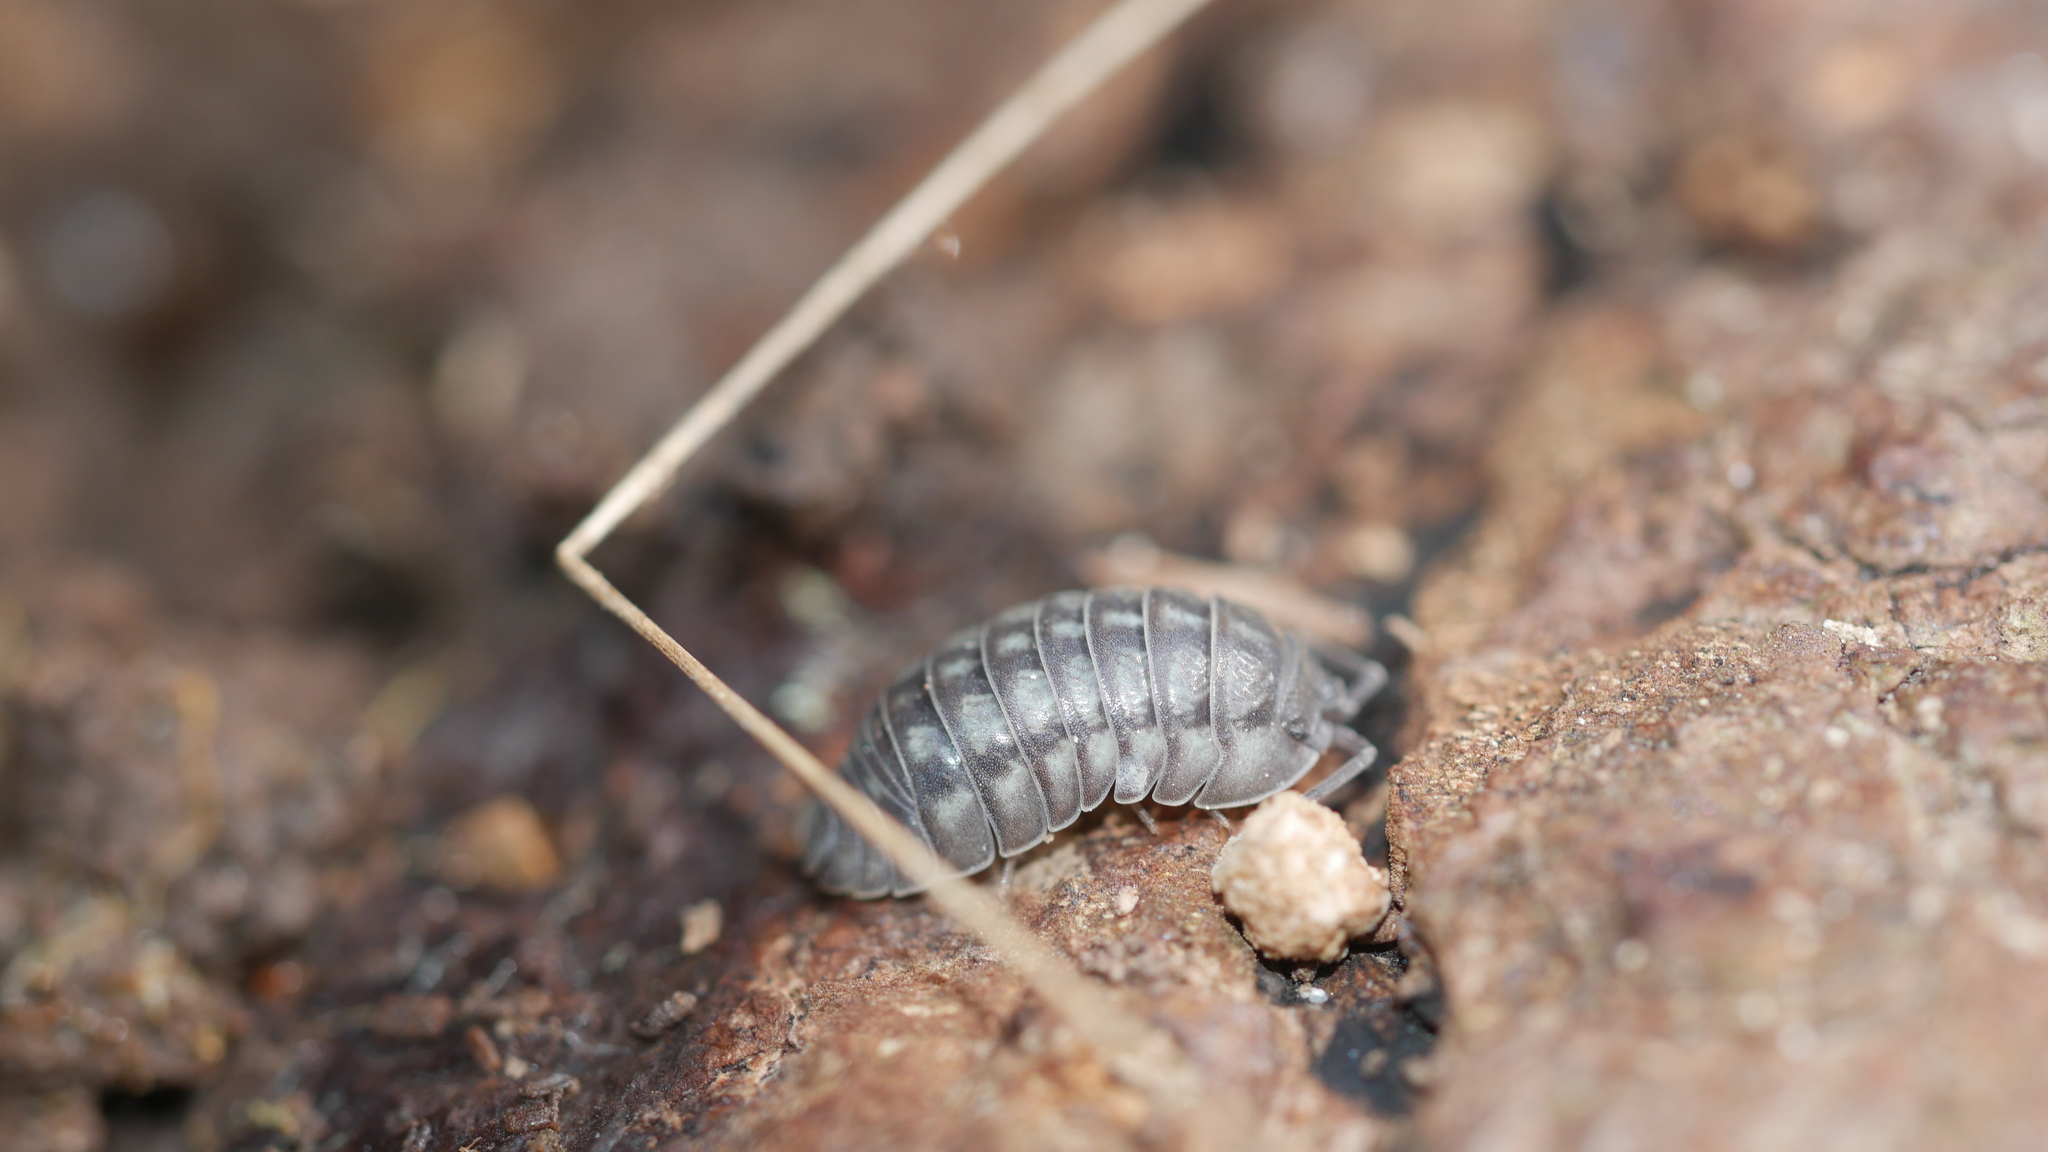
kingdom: Animalia
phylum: Arthropoda
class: Malacostraca
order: Isopoda
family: Armadillidiidae
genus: Armadillidium
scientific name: Armadillidium nasatum
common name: Isopod
